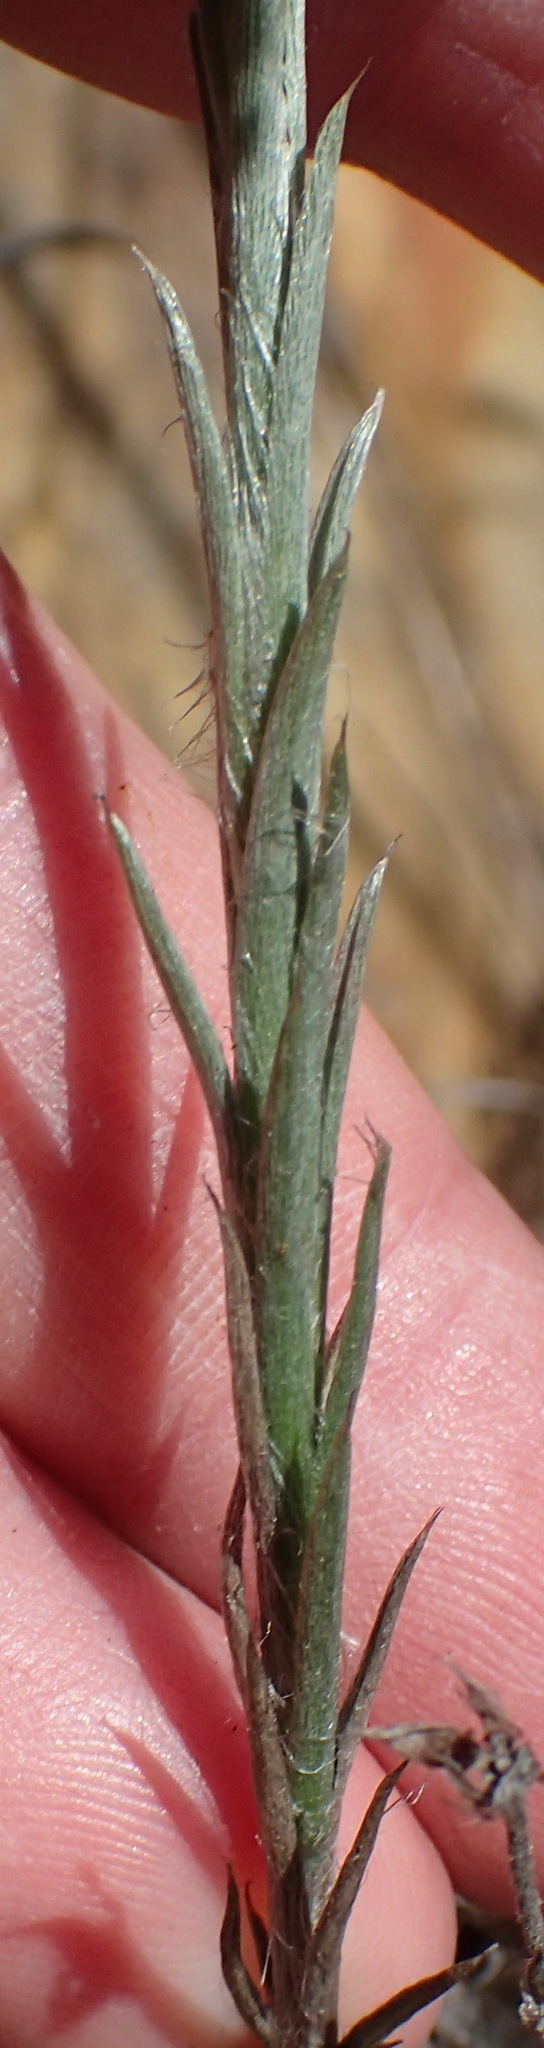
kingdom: Plantae
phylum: Tracheophyta
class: Magnoliopsida
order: Asterales
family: Asteraceae
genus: Achyranthemum
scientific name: Achyranthemum paniculatum
